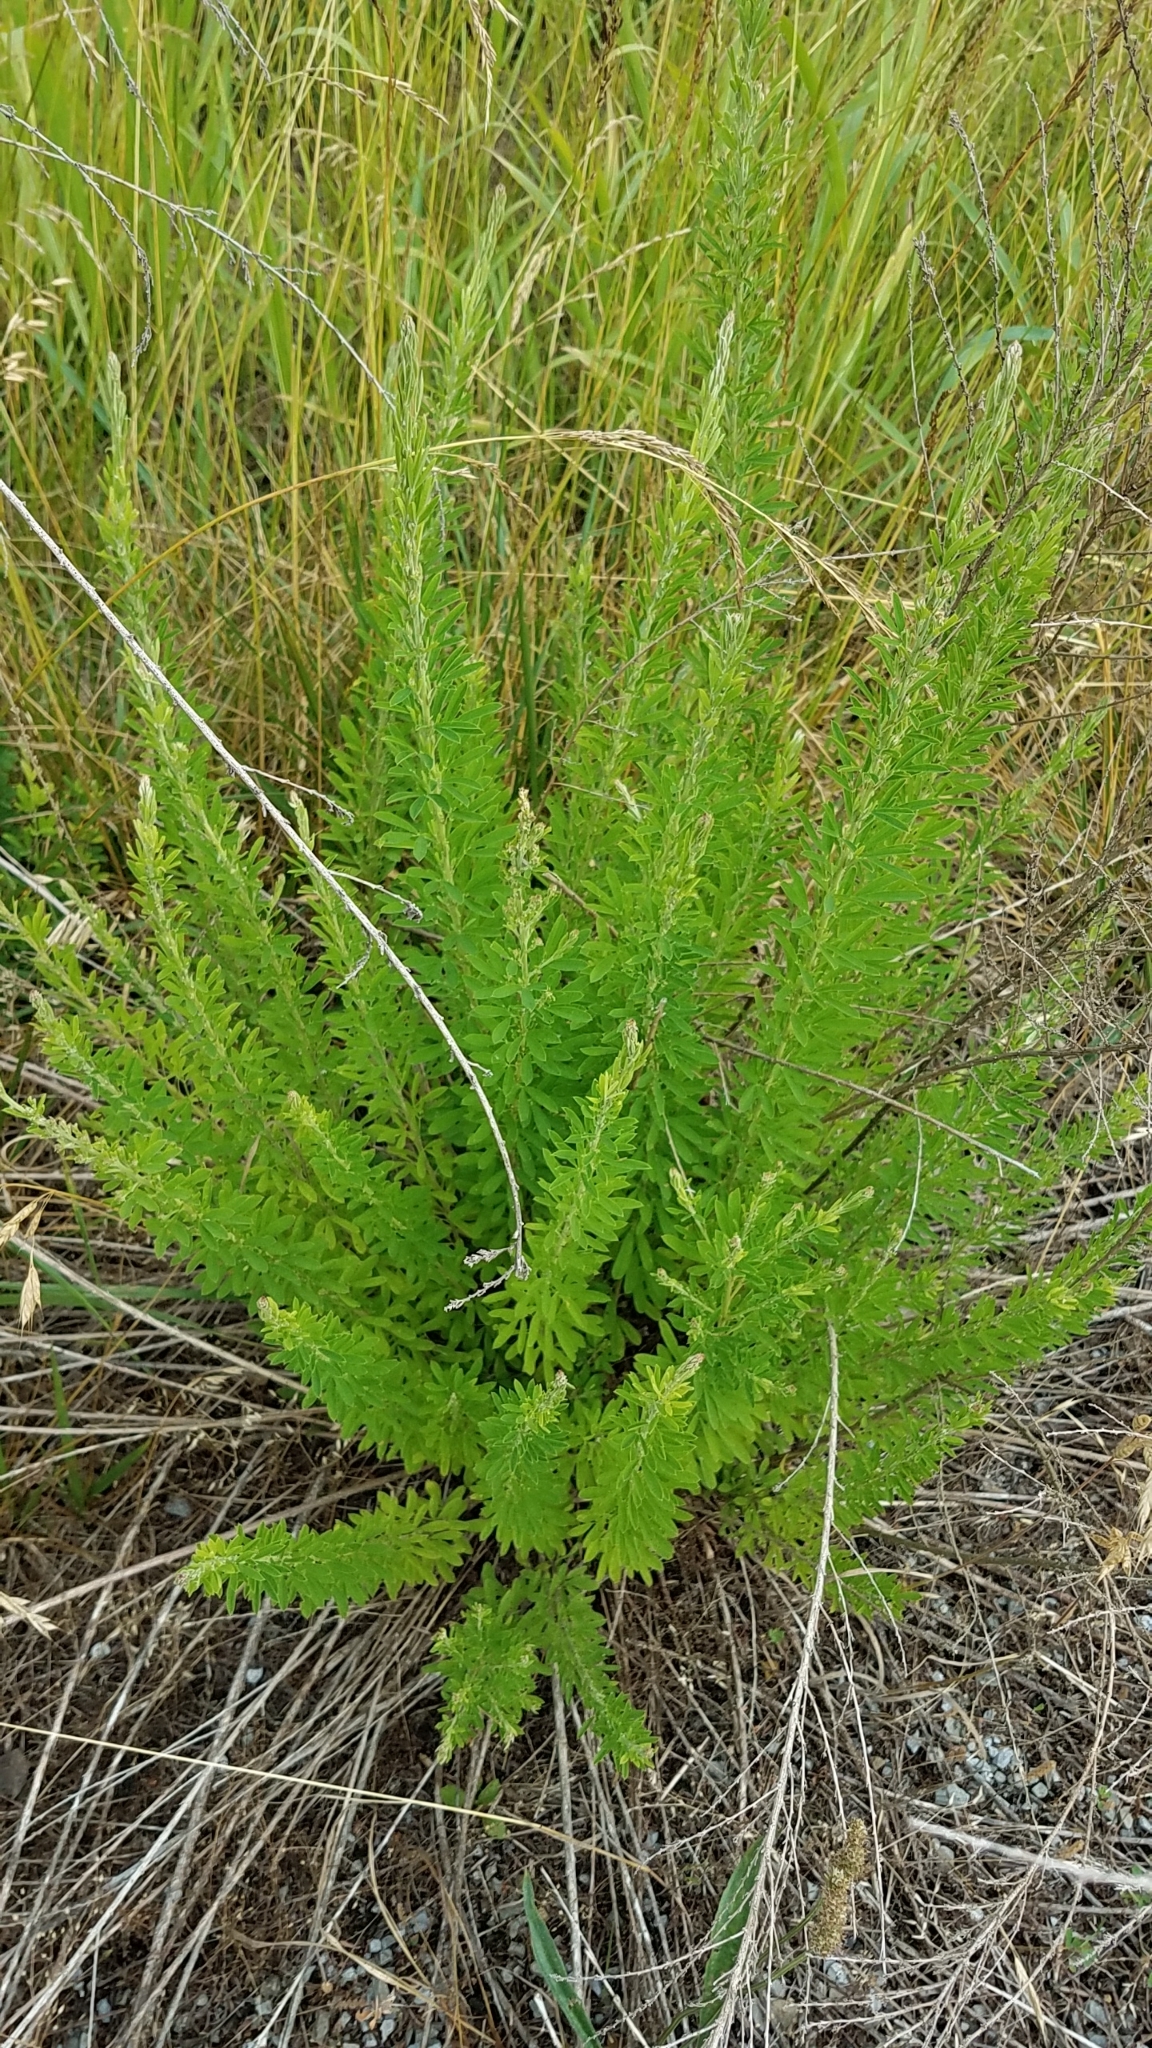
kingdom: Plantae
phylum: Tracheophyta
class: Magnoliopsida
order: Fabales
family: Fabaceae
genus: Lespedeza
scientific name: Lespedeza cuneata
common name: Chinese bush-clover
